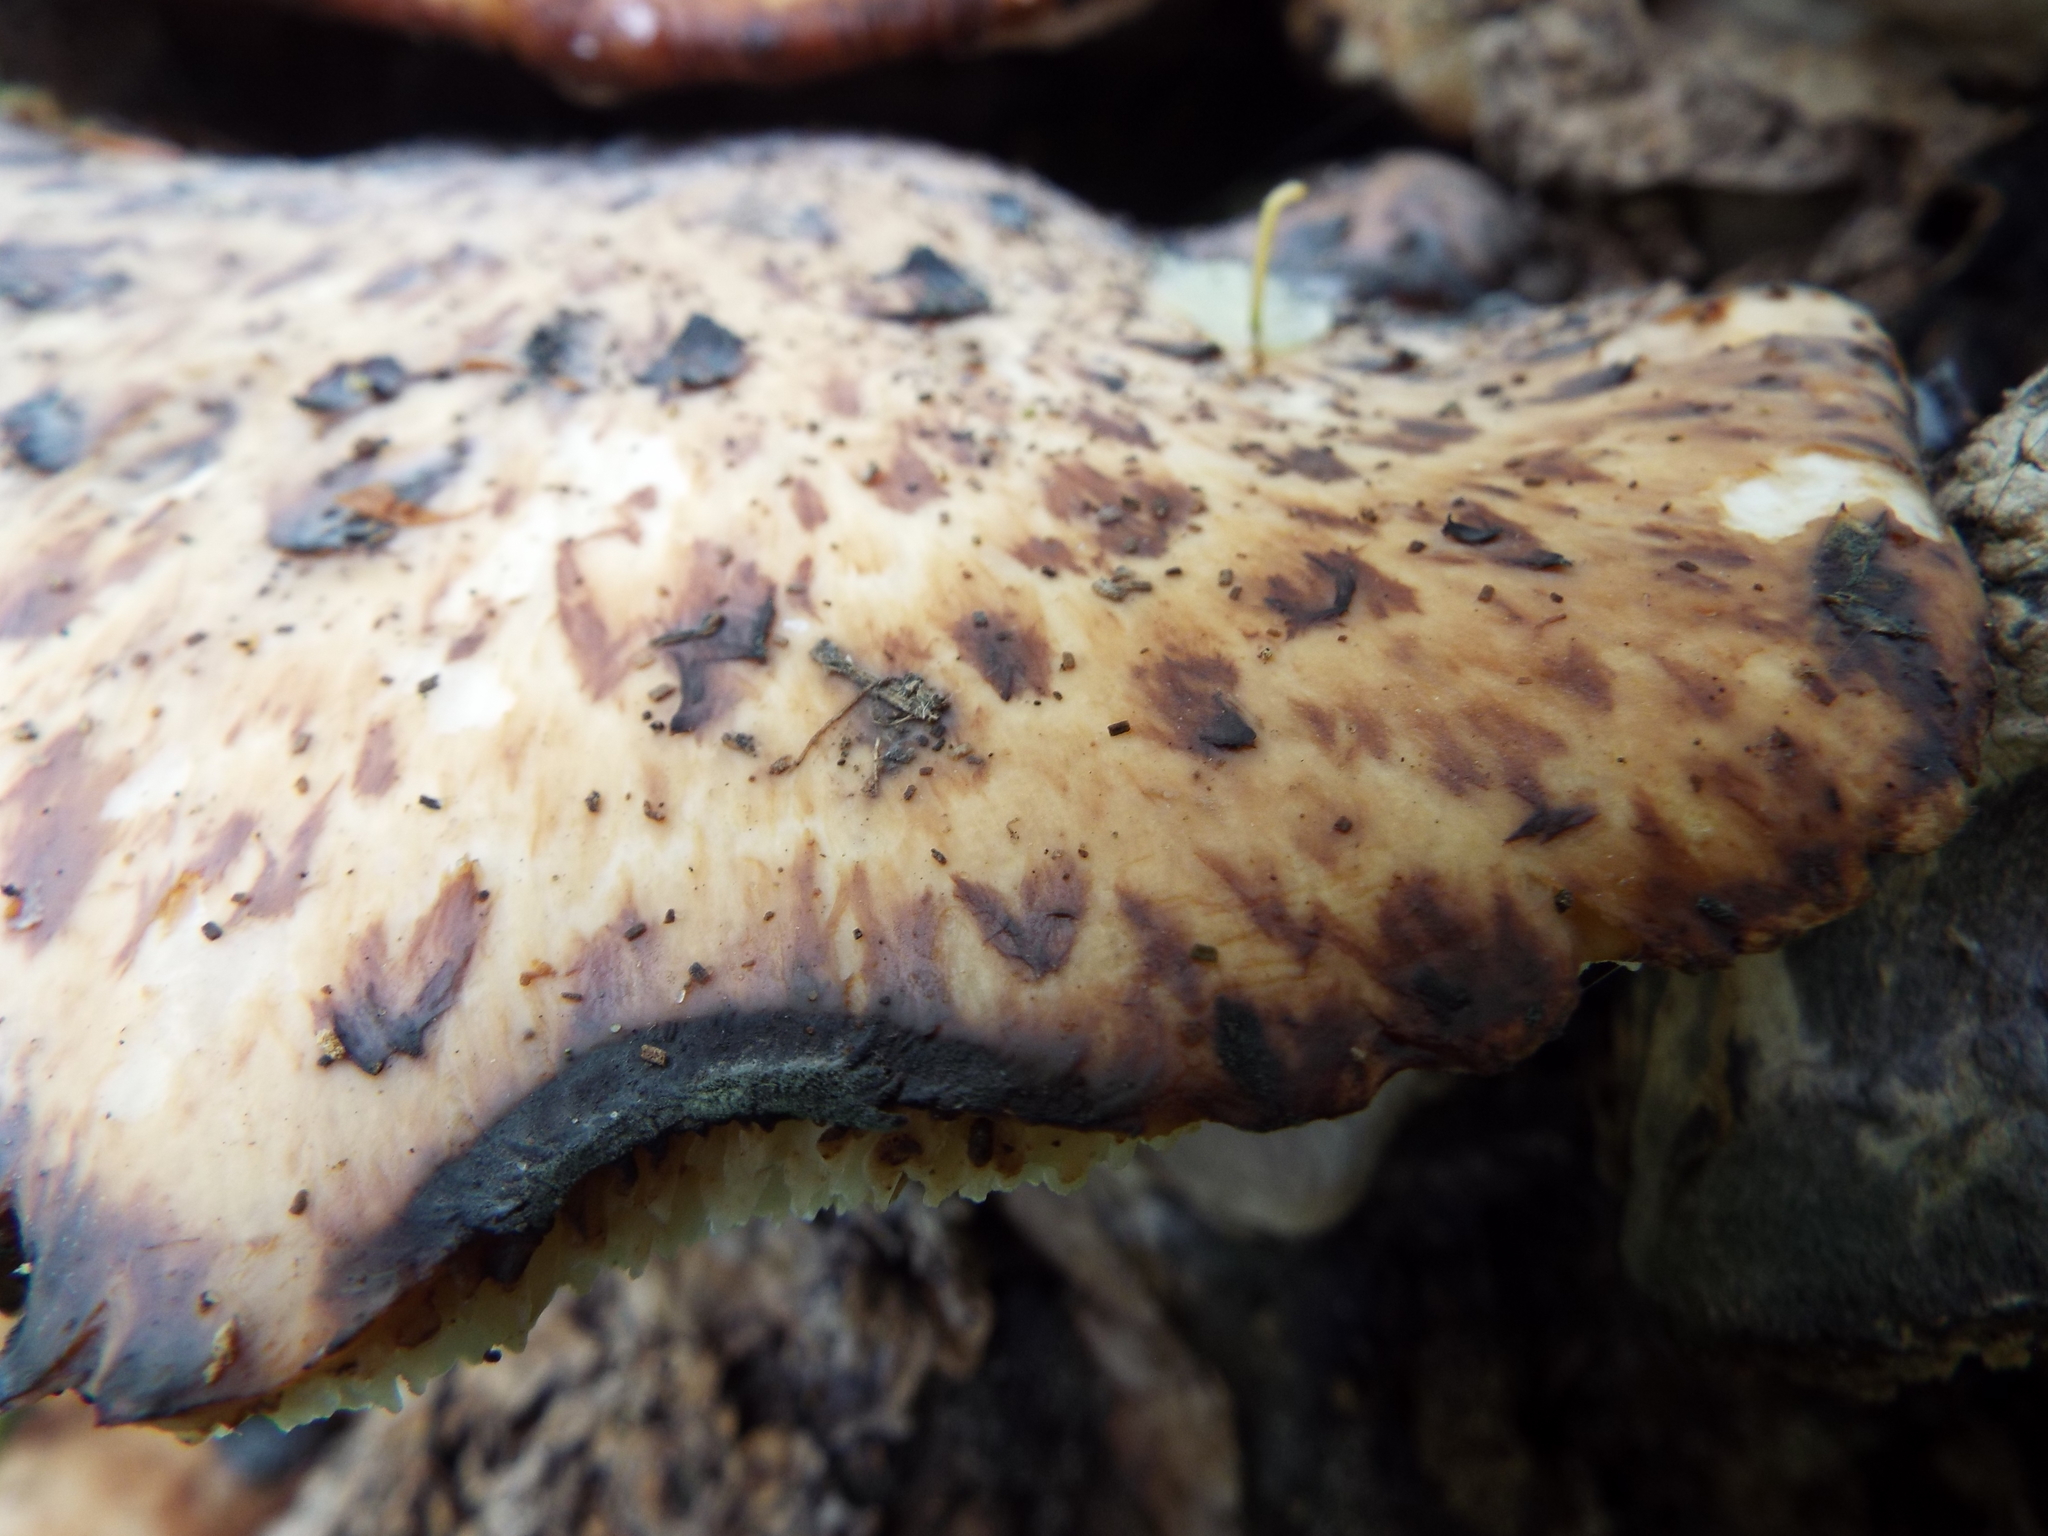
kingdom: Fungi
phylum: Basidiomycota
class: Agaricomycetes
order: Polyporales
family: Polyporaceae
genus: Cerioporus
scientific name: Cerioporus squamosus
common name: Dryad's saddle
